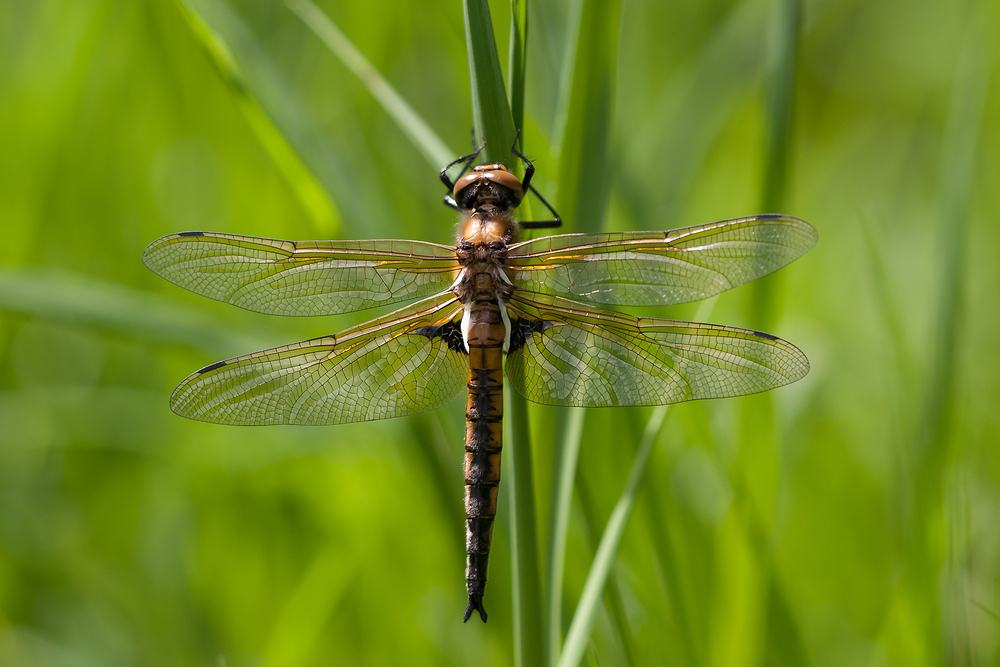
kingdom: Animalia
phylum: Arthropoda
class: Insecta
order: Odonata
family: Corduliidae
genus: Epitheca
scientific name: Epitheca bimaculata
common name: Eurasian baskettail
